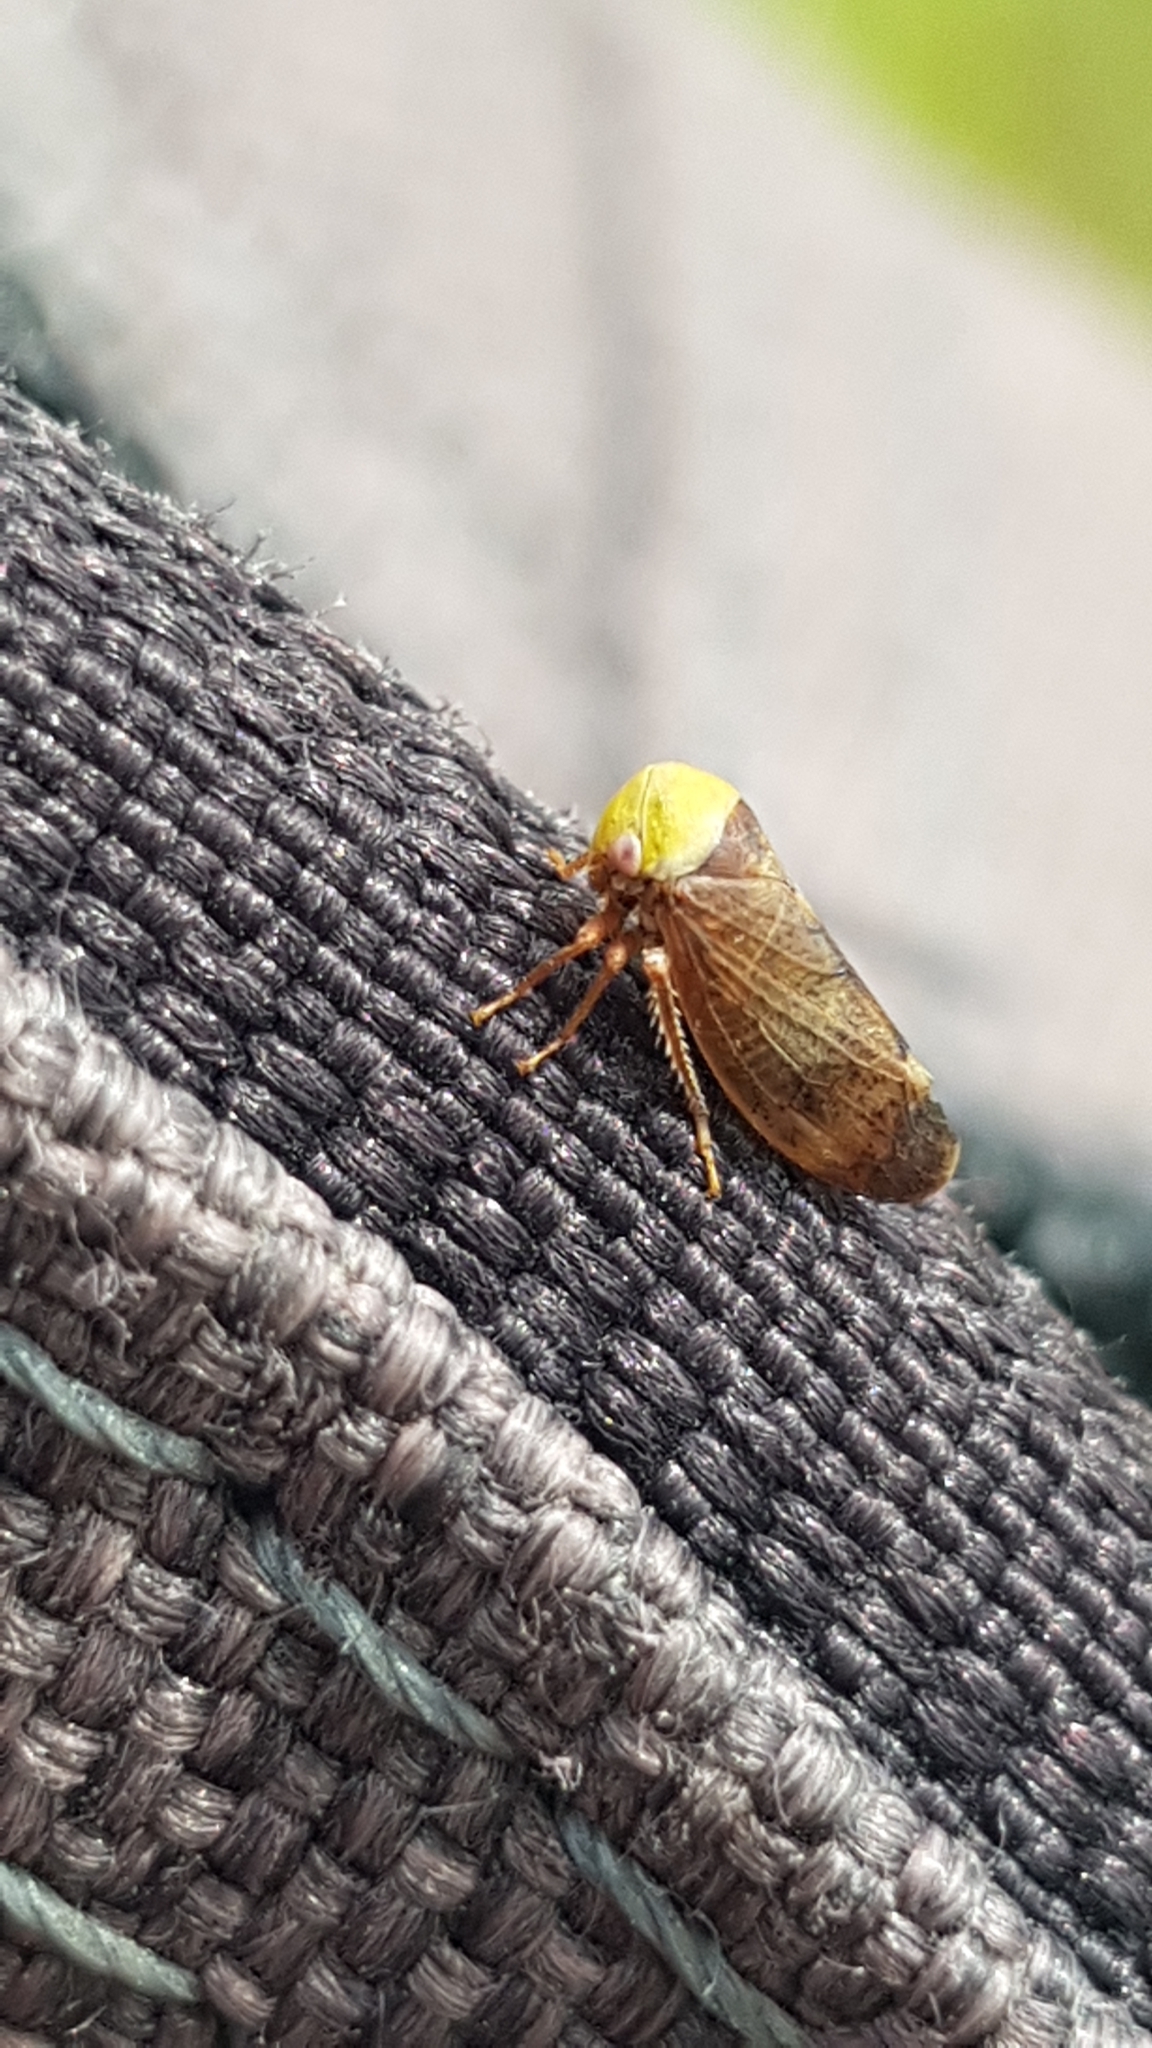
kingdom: Animalia
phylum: Arthropoda
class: Insecta
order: Hemiptera
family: Cicadellidae
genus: Pediopsis
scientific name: Pediopsis tiliae
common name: Leafhopper
